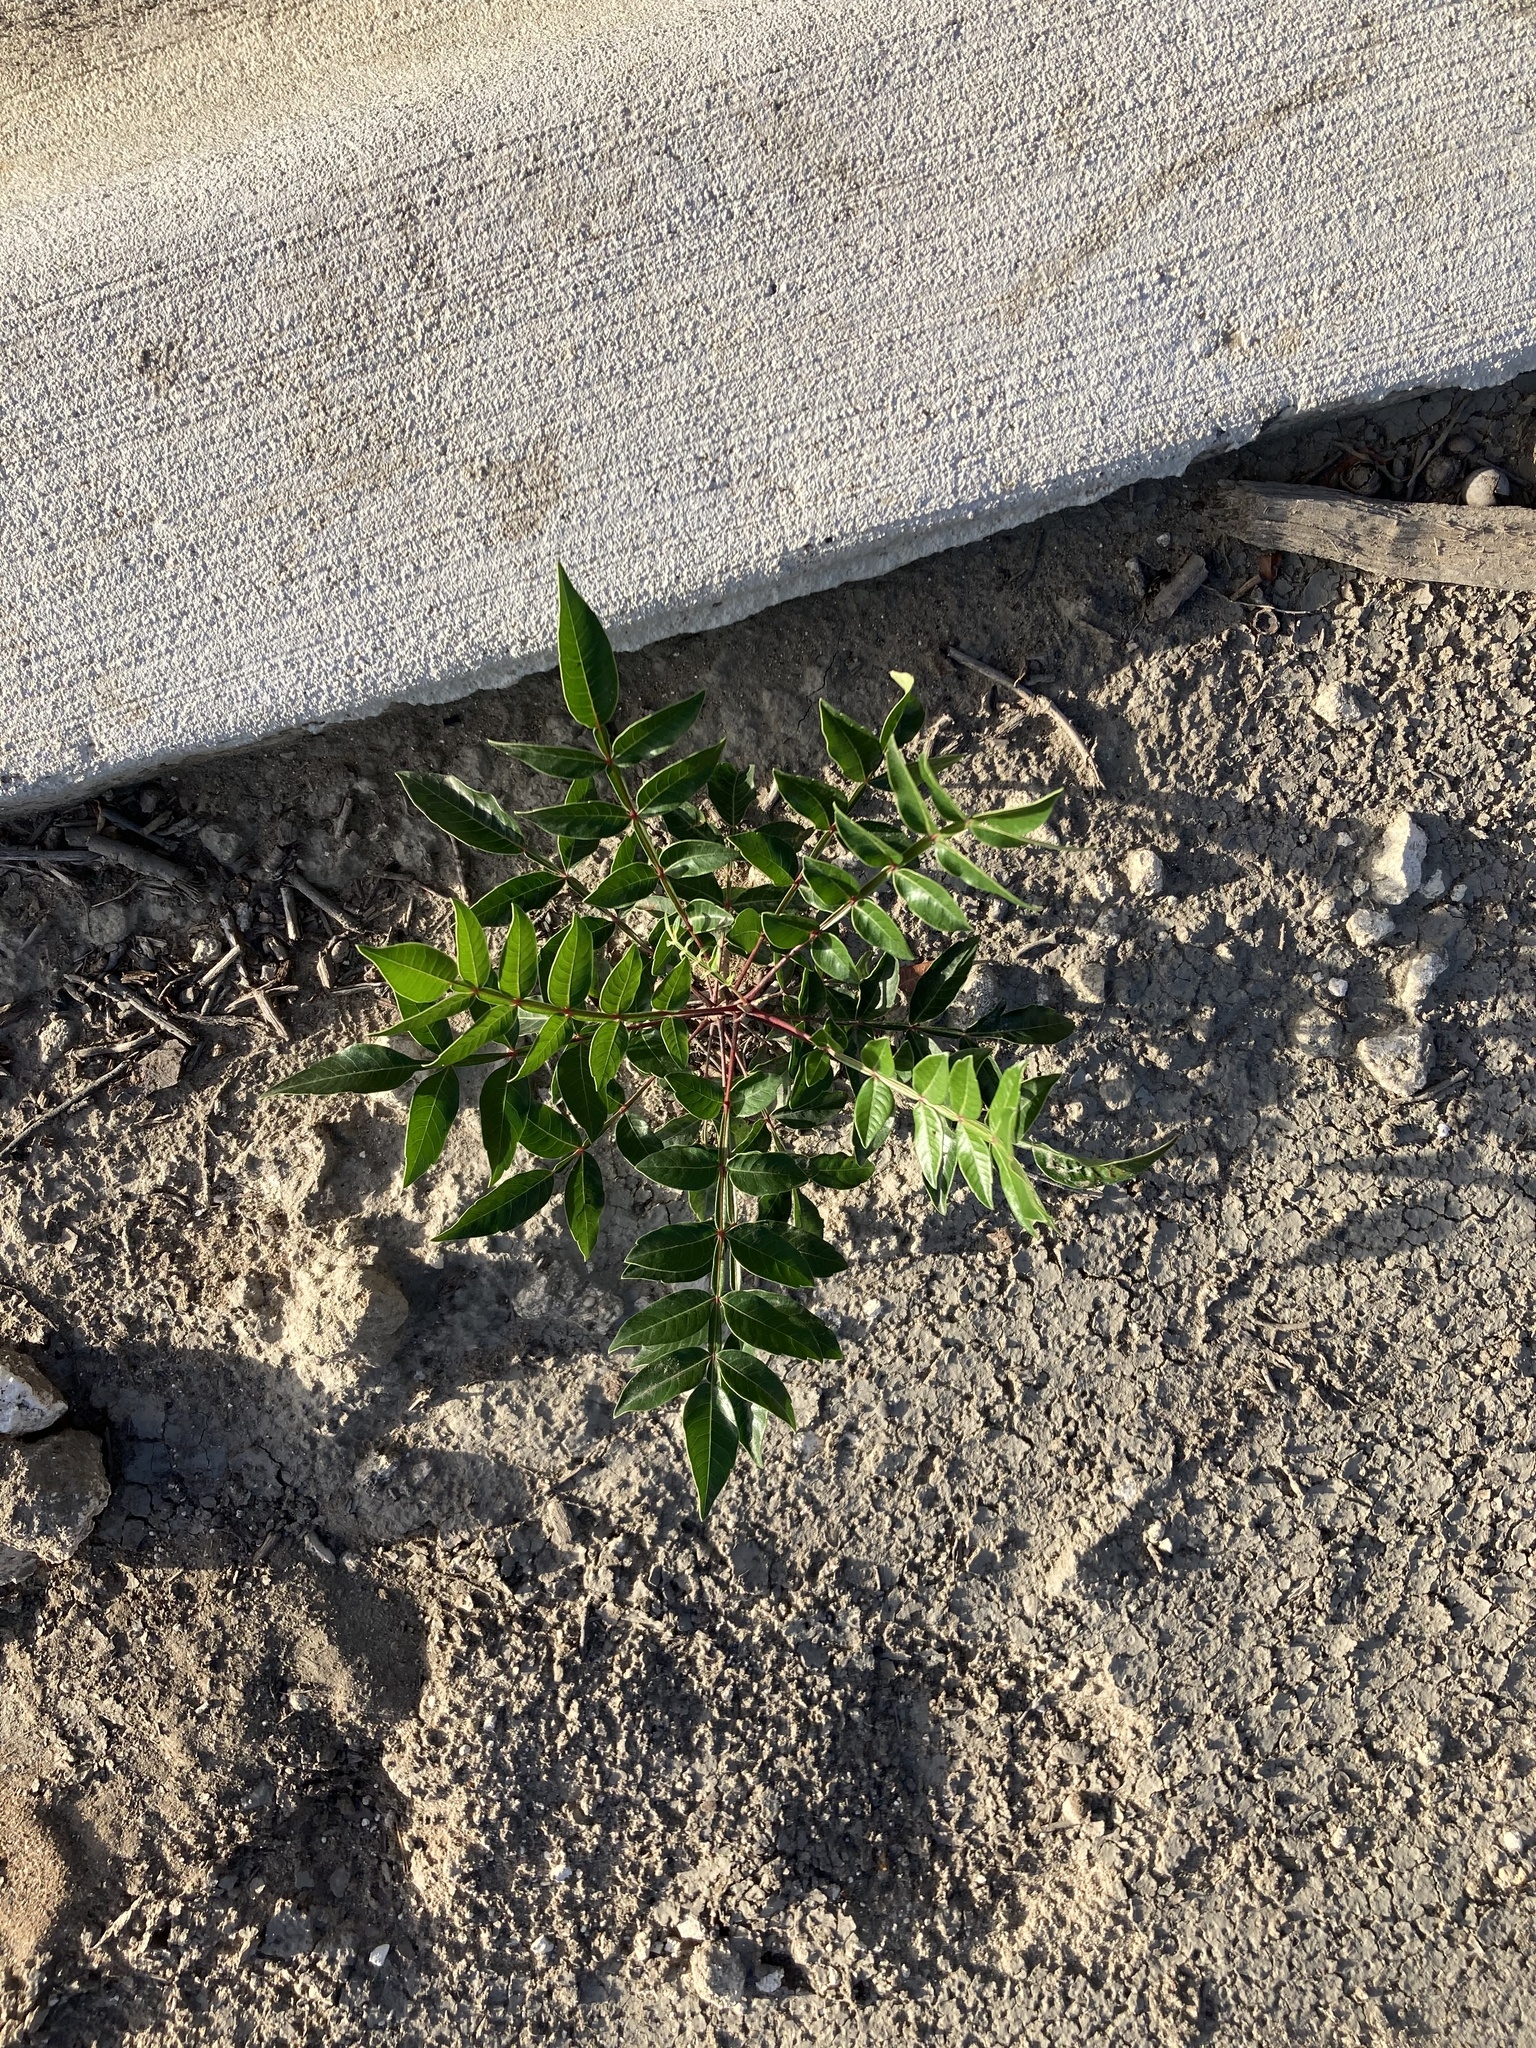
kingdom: Plantae
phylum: Tracheophyta
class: Magnoliopsida
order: Sapindales
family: Anacardiaceae
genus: Rhus
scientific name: Rhus copallina
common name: Shining sumac
